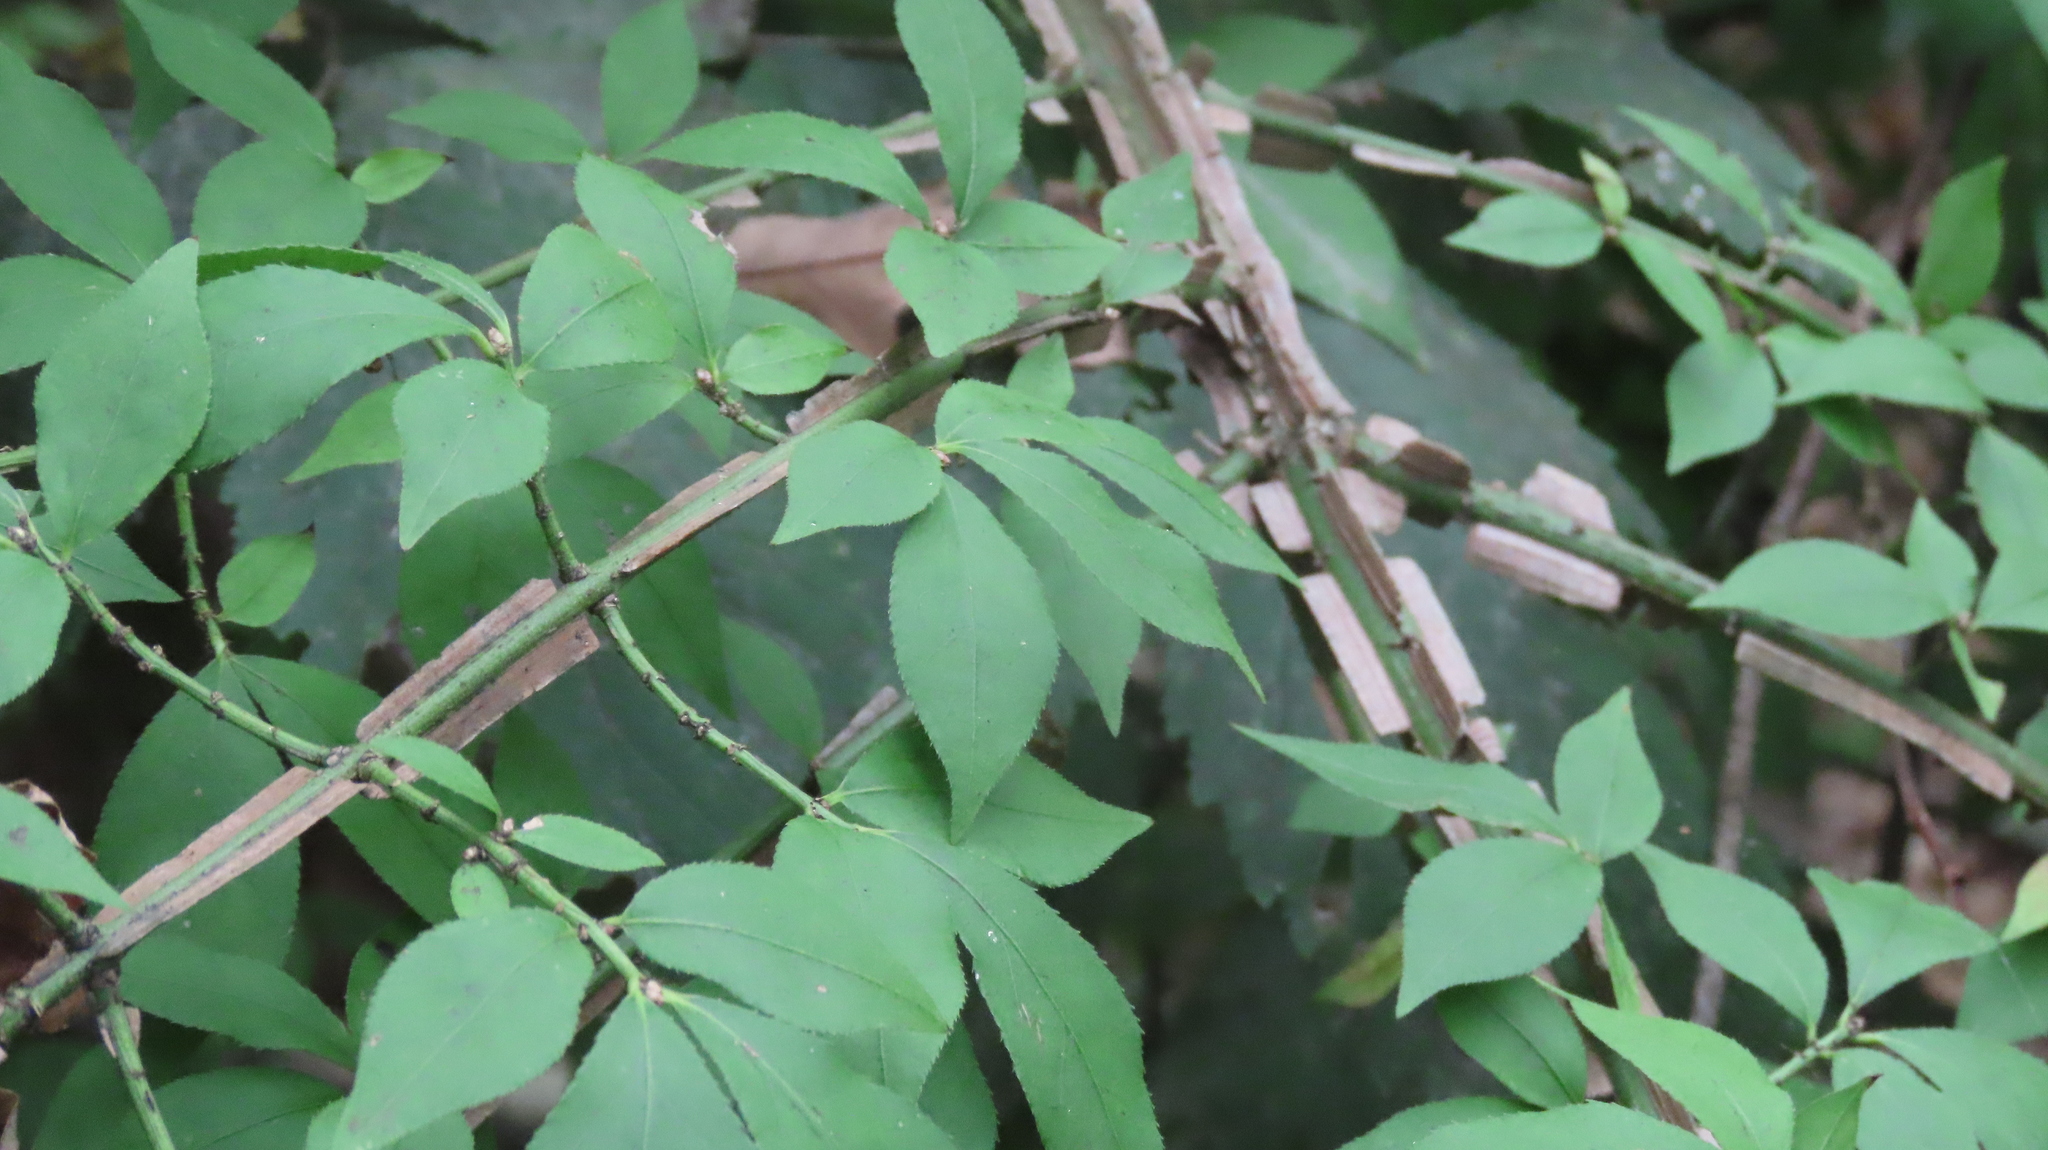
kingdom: Plantae
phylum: Tracheophyta
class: Magnoliopsida
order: Celastrales
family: Celastraceae
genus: Euonymus
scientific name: Euonymus alatus
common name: Winged euonymus
